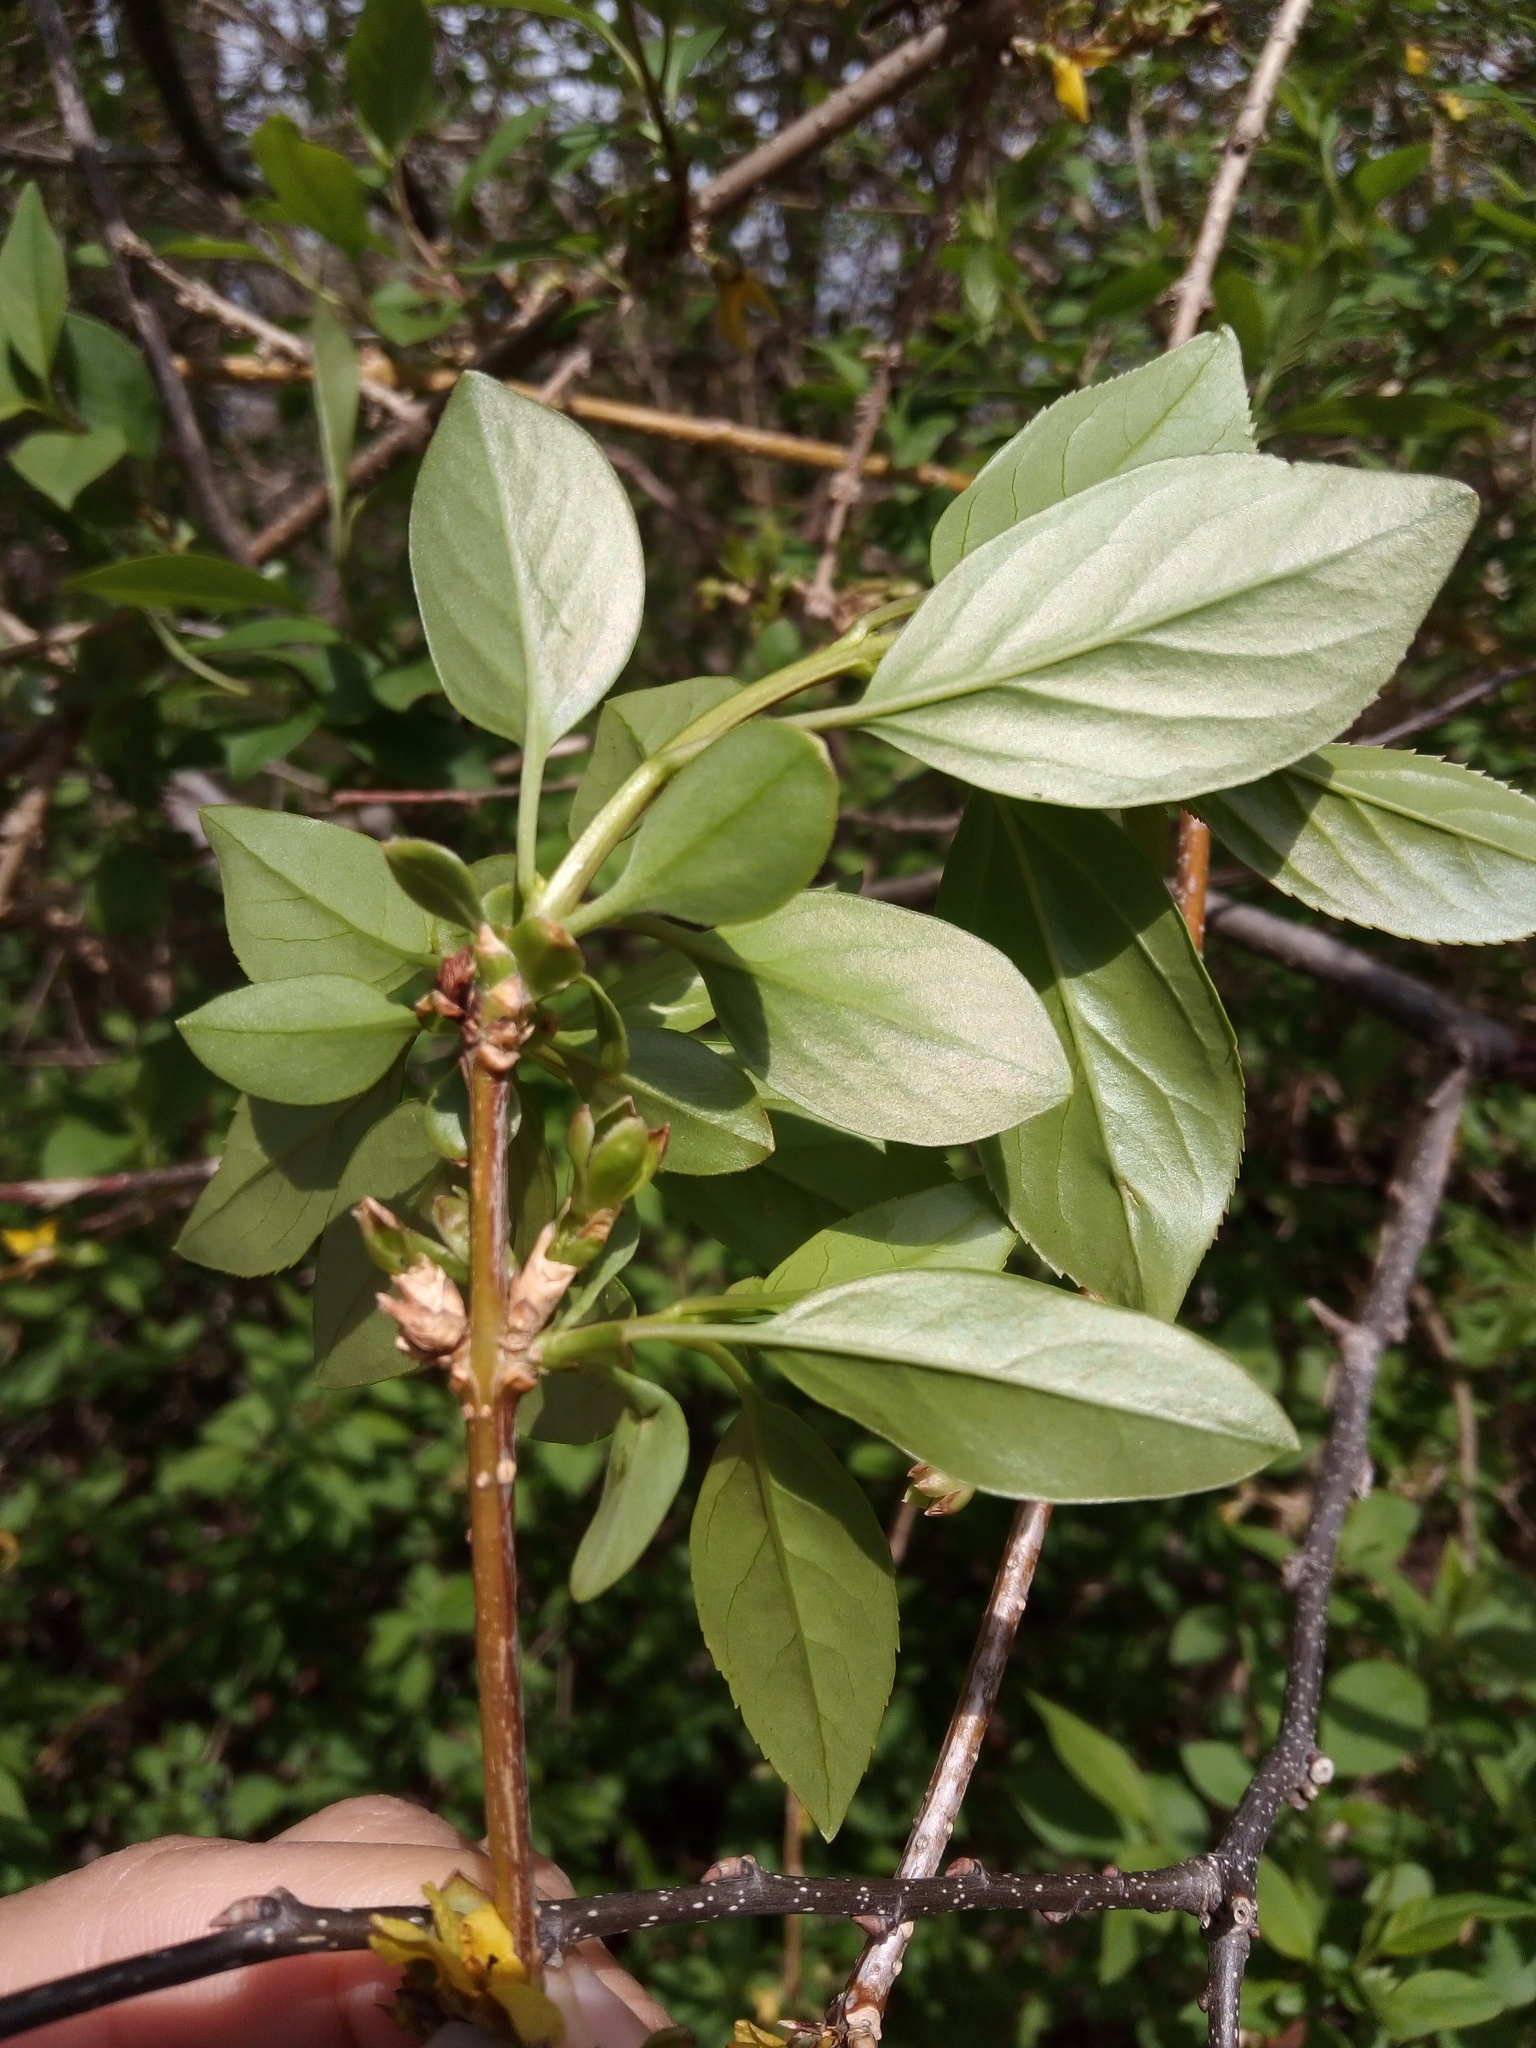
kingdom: Plantae
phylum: Tracheophyta
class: Magnoliopsida
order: Lamiales
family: Oleaceae
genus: Forsythia
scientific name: Forsythia viridissima
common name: Greenstem forsythia
